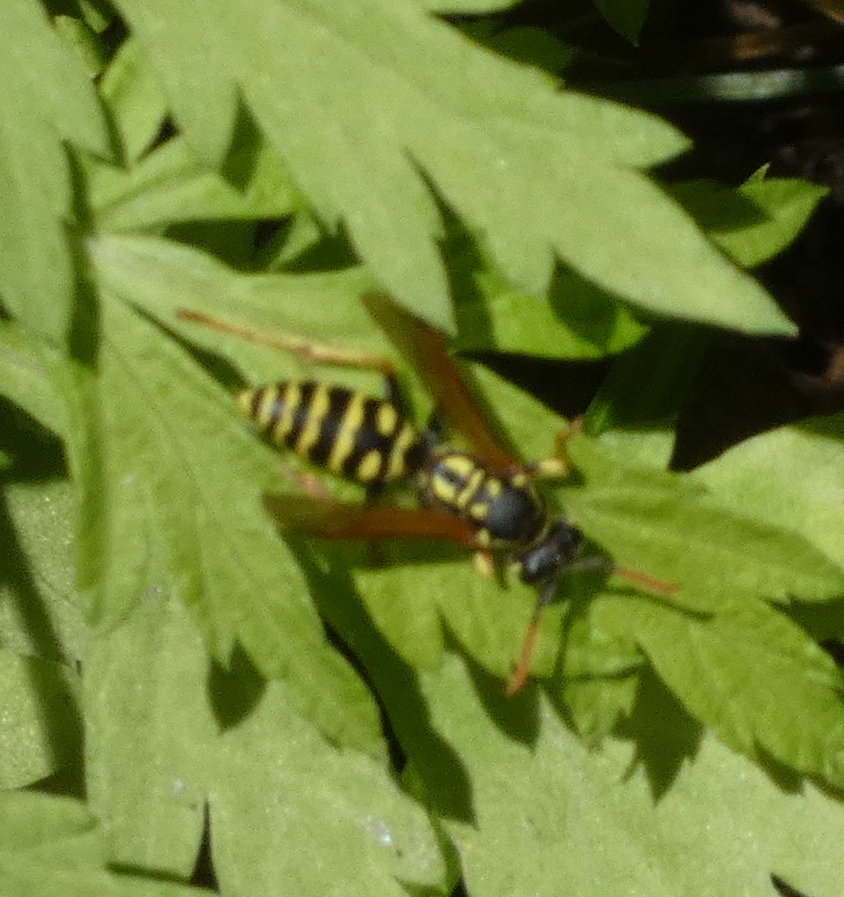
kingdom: Animalia
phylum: Arthropoda
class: Insecta
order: Hymenoptera
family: Eumenidae
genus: Polistes
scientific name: Polistes dominula
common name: Paper wasp
